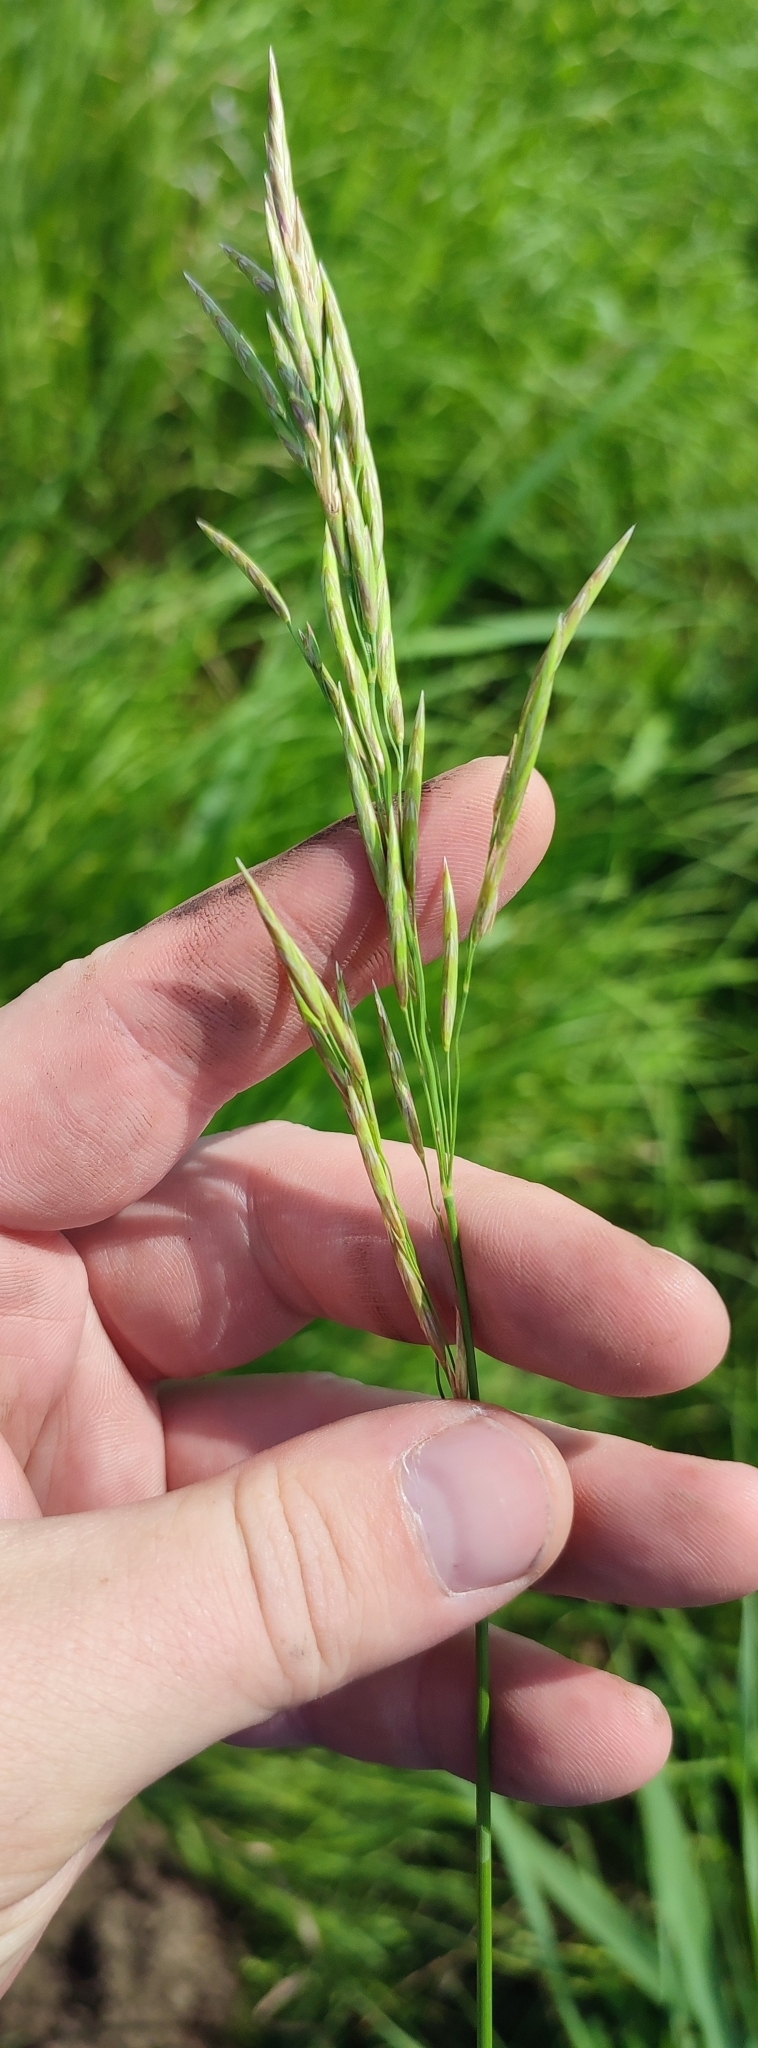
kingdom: Plantae
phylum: Tracheophyta
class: Liliopsida
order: Poales
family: Poaceae
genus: Bromus
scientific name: Bromus inermis
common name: Smooth brome
